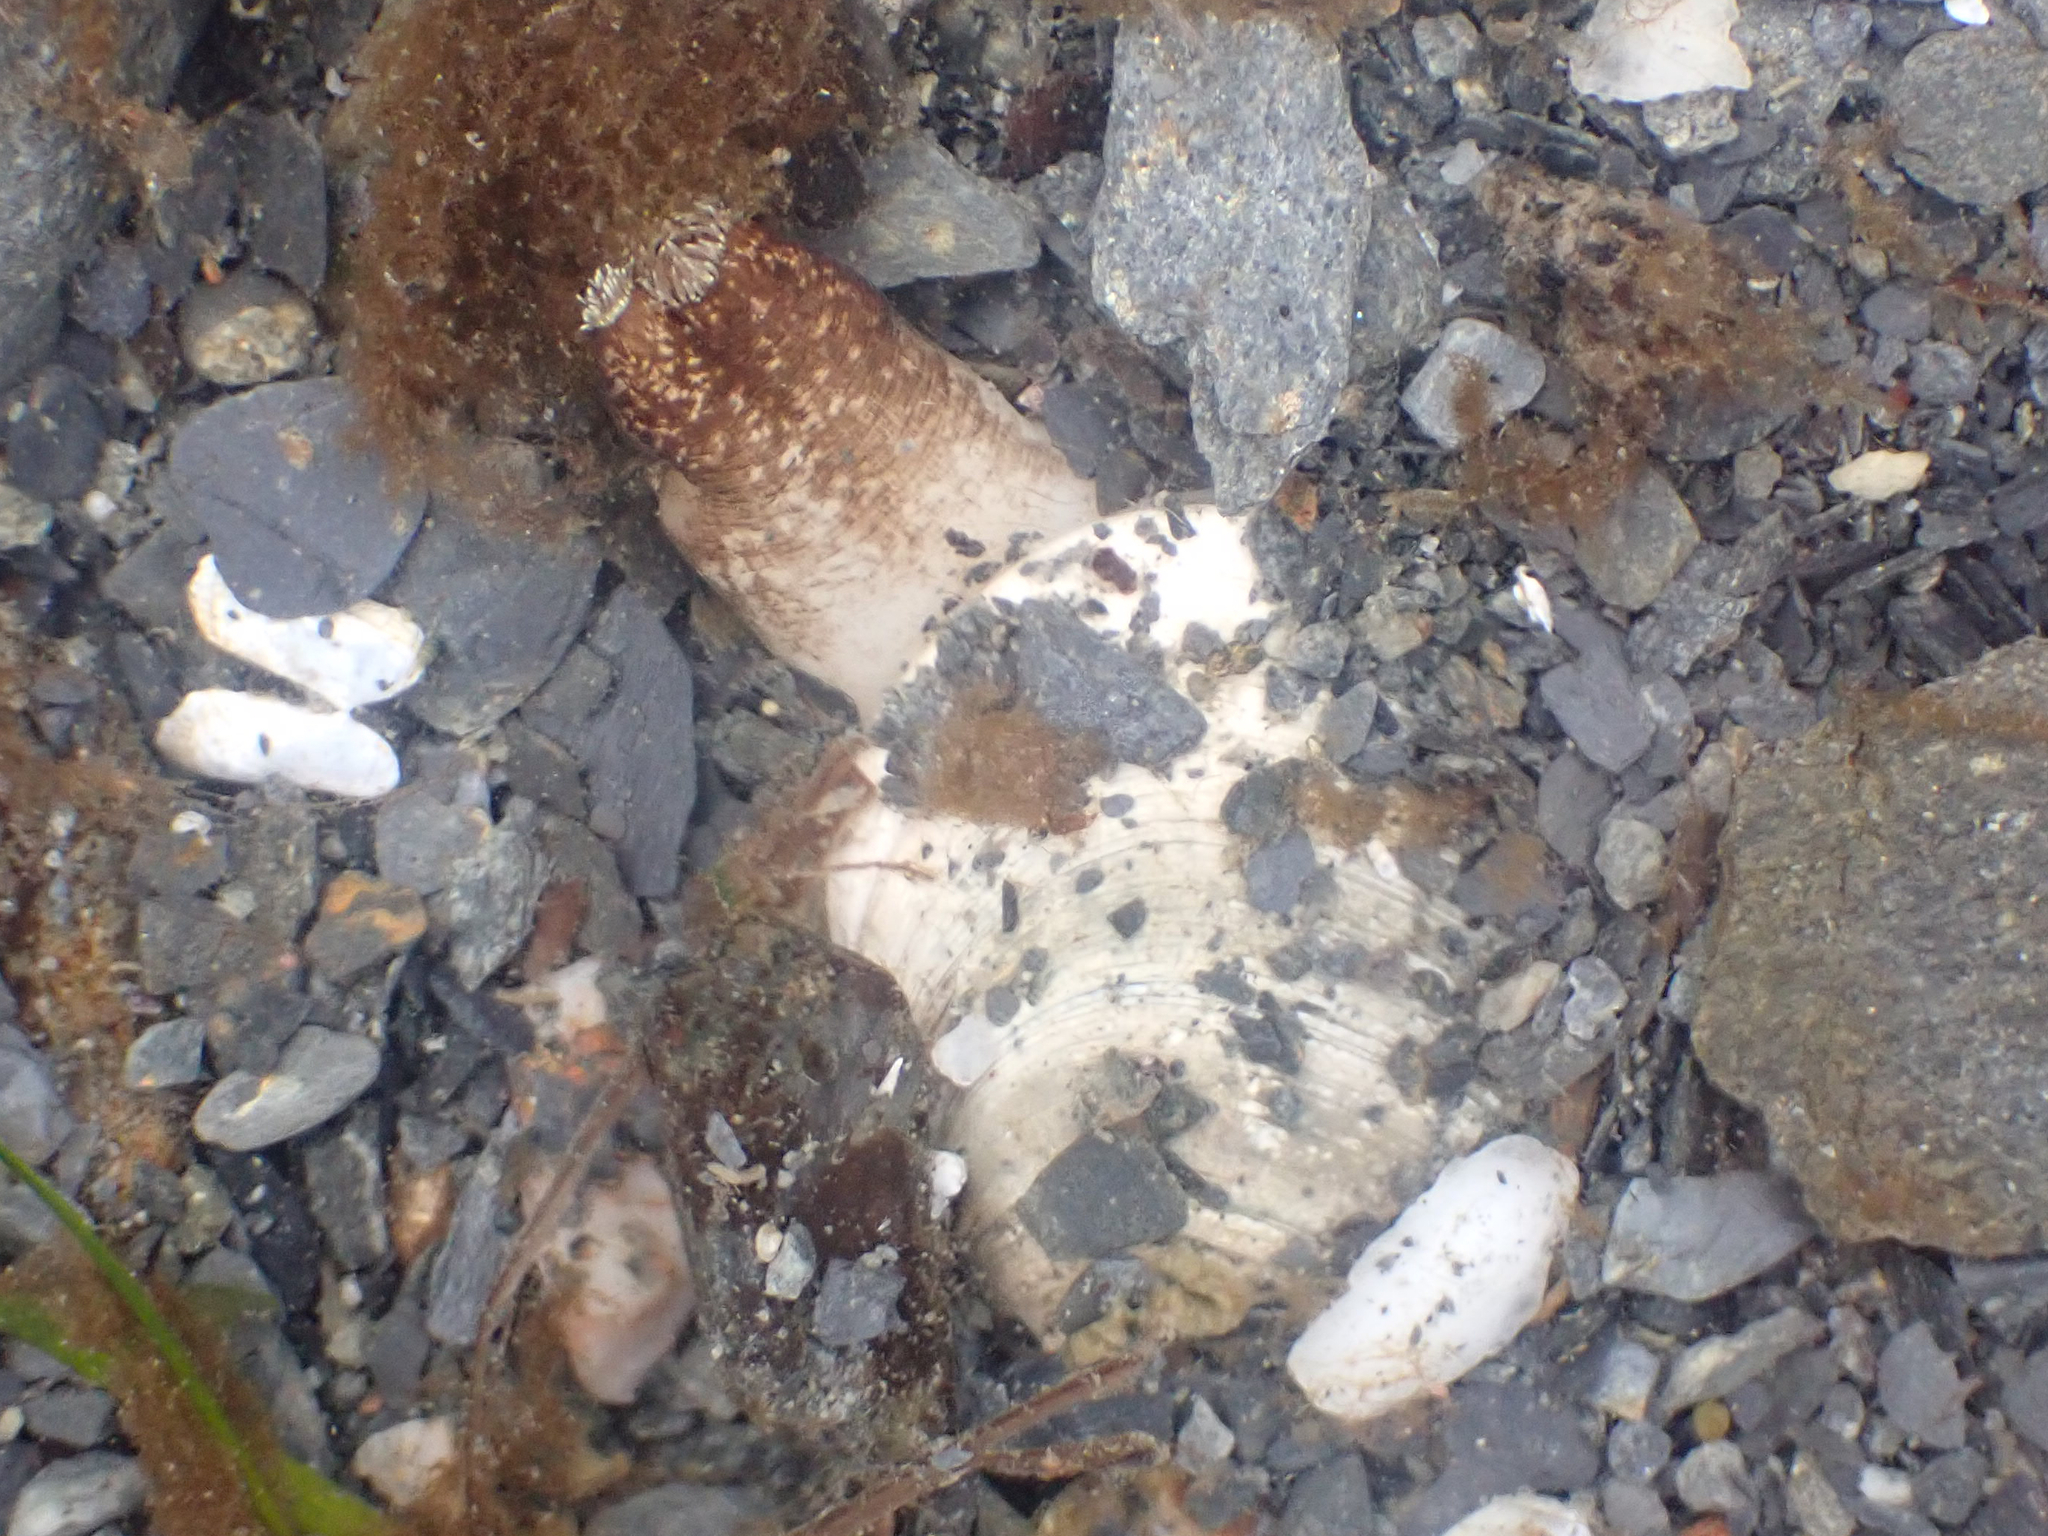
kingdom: Animalia
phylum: Mollusca
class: Bivalvia
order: Venerida
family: Veneridae
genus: Saxidomus
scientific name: Saxidomus gigantea
